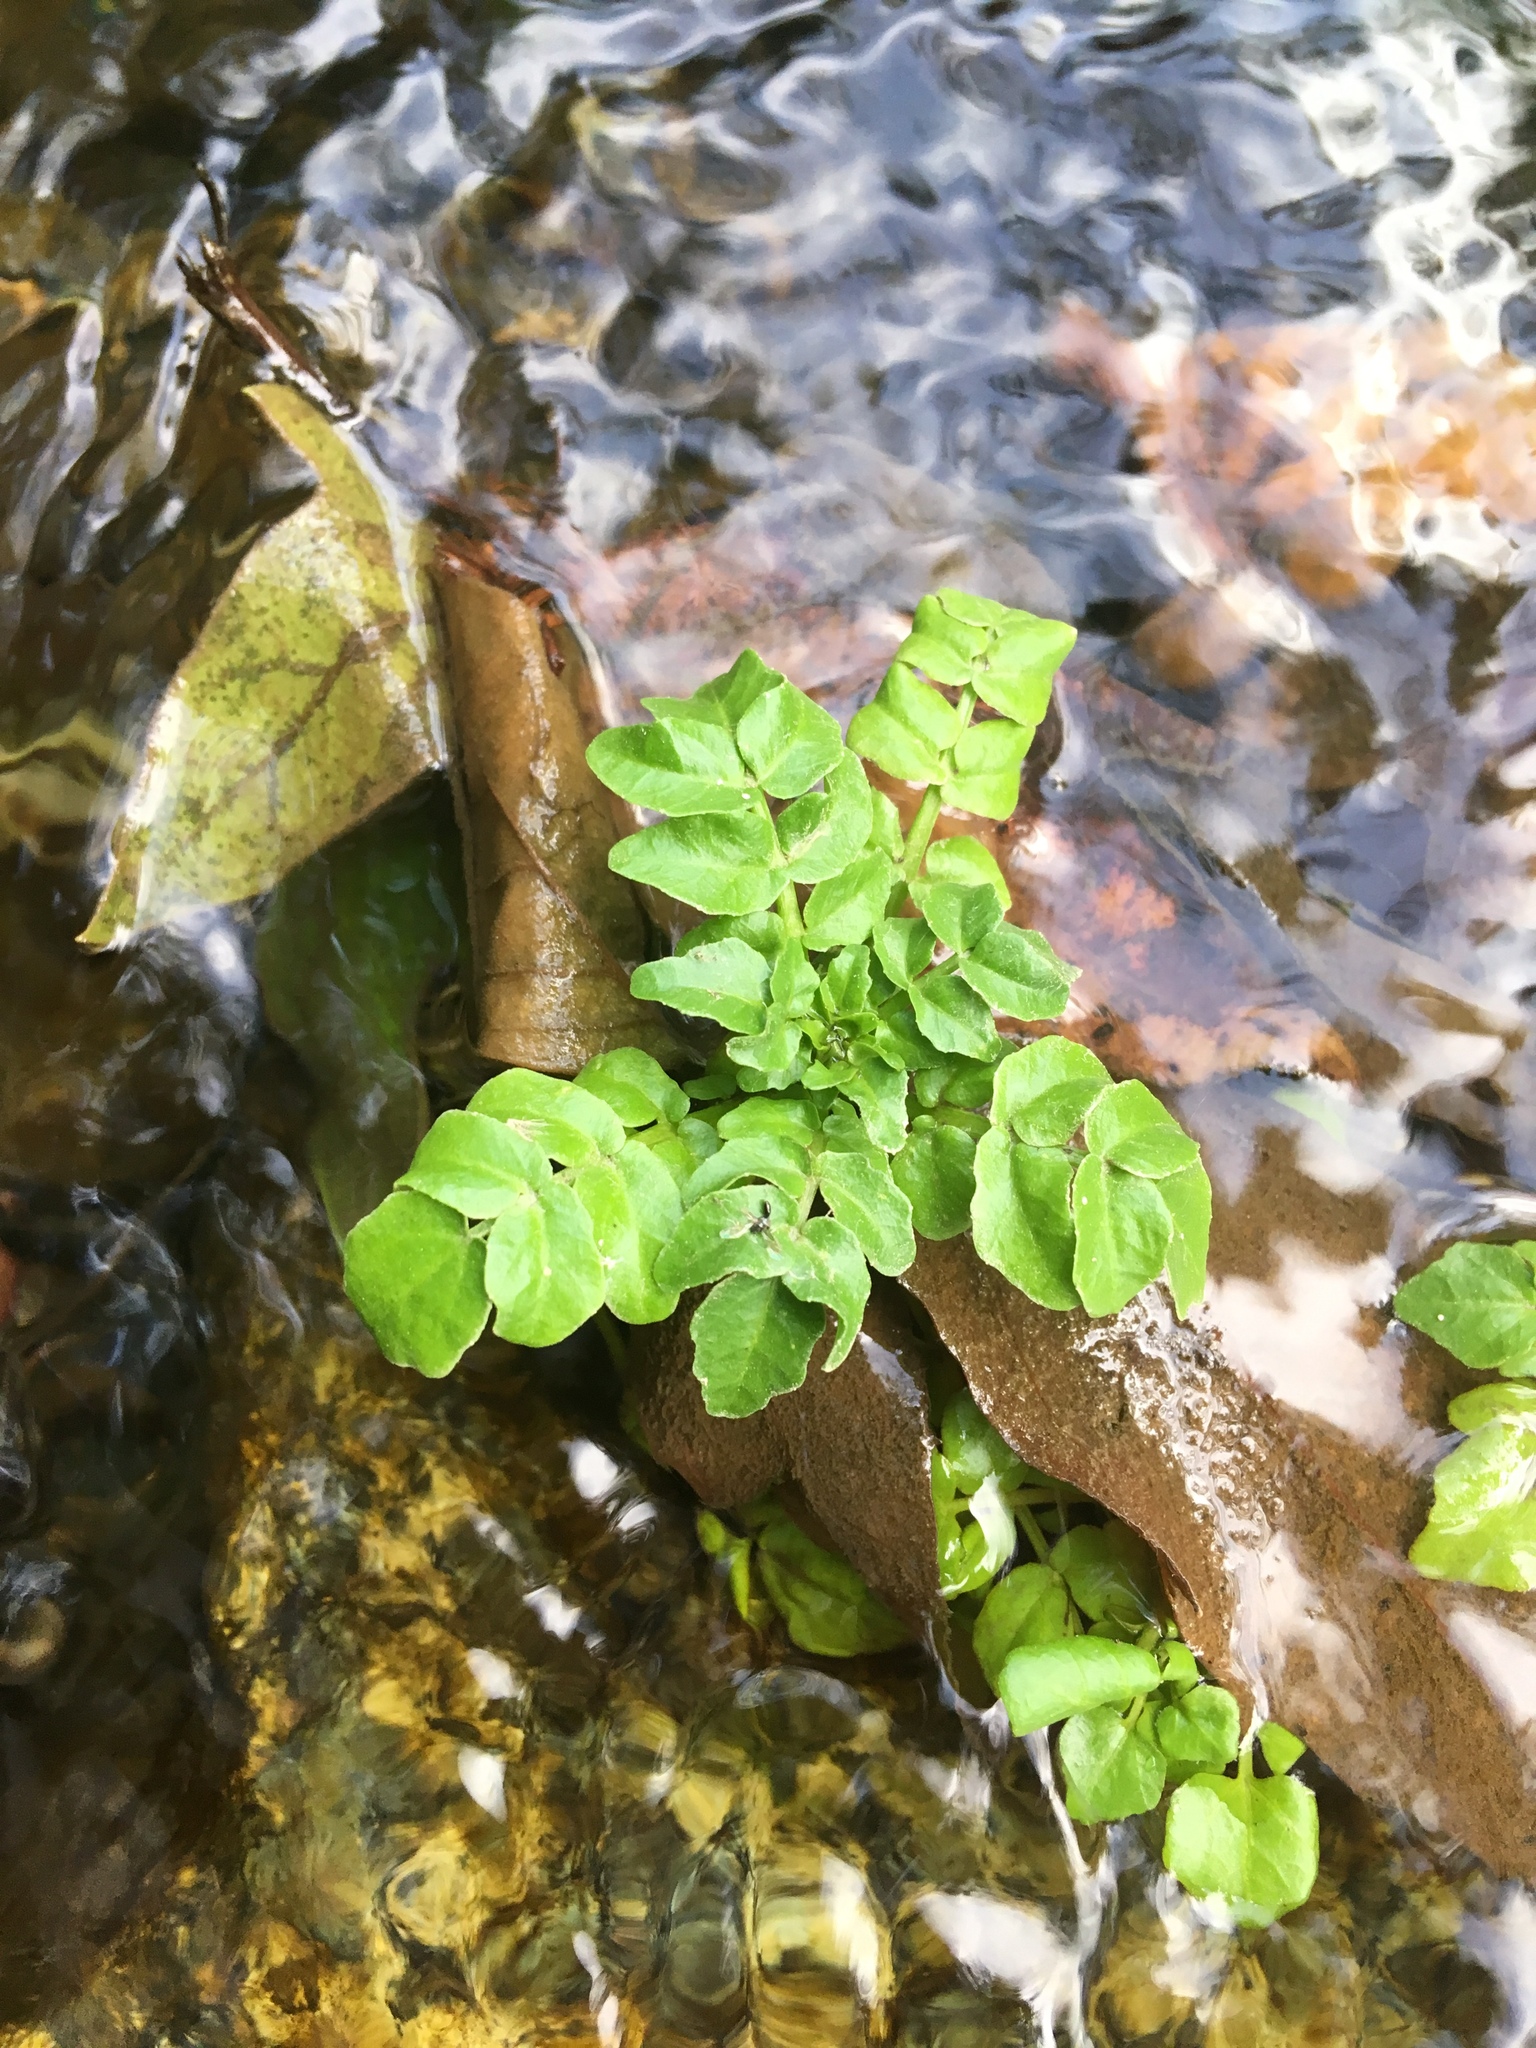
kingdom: Plantae
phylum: Tracheophyta
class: Magnoliopsida
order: Brassicales
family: Brassicaceae
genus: Nasturtium
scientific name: Nasturtium officinale
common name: Watercress
